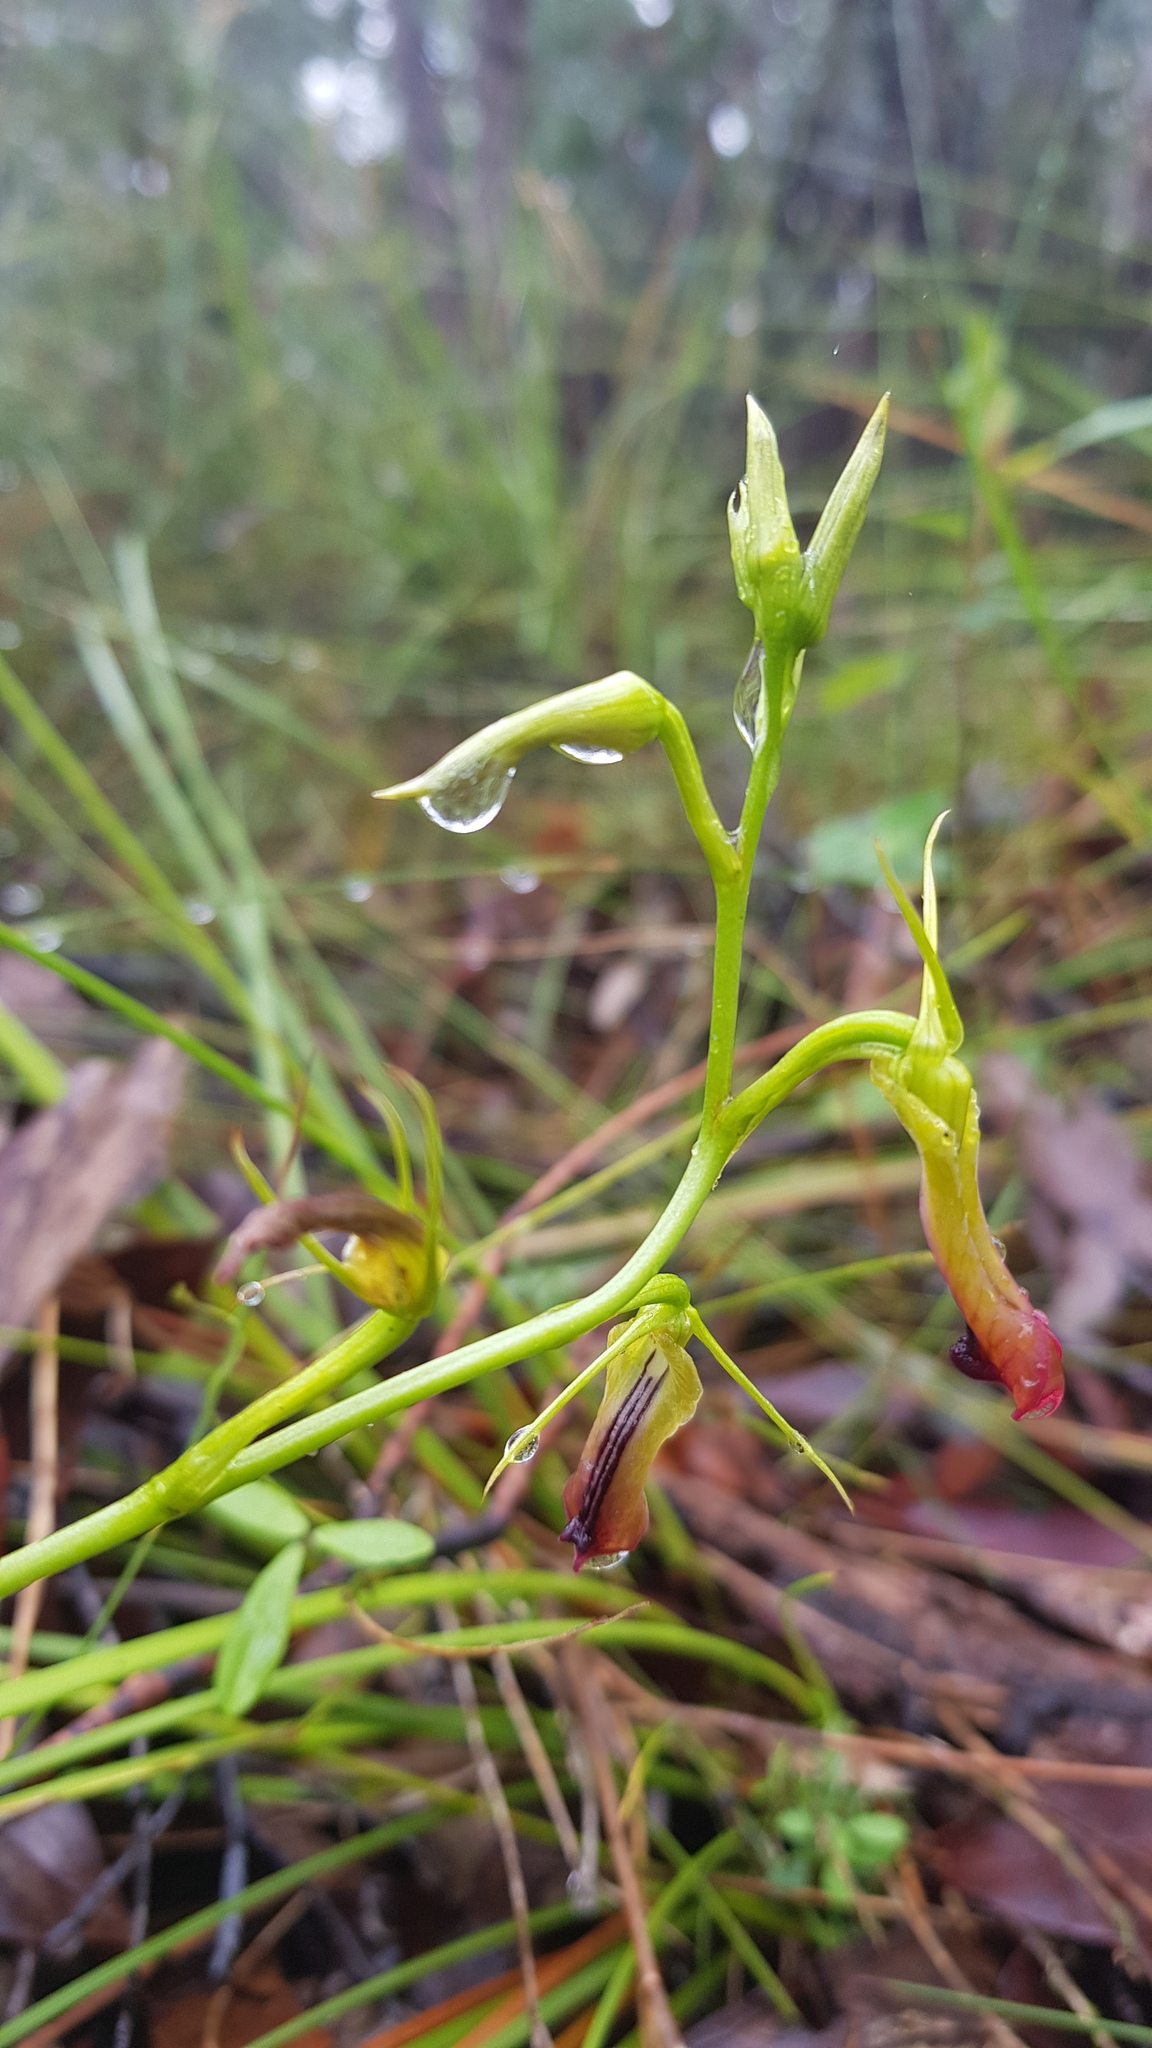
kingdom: Plantae
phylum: Tracheophyta
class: Liliopsida
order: Asparagales
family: Orchidaceae
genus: Cryptostylis
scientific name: Cryptostylis subulata
